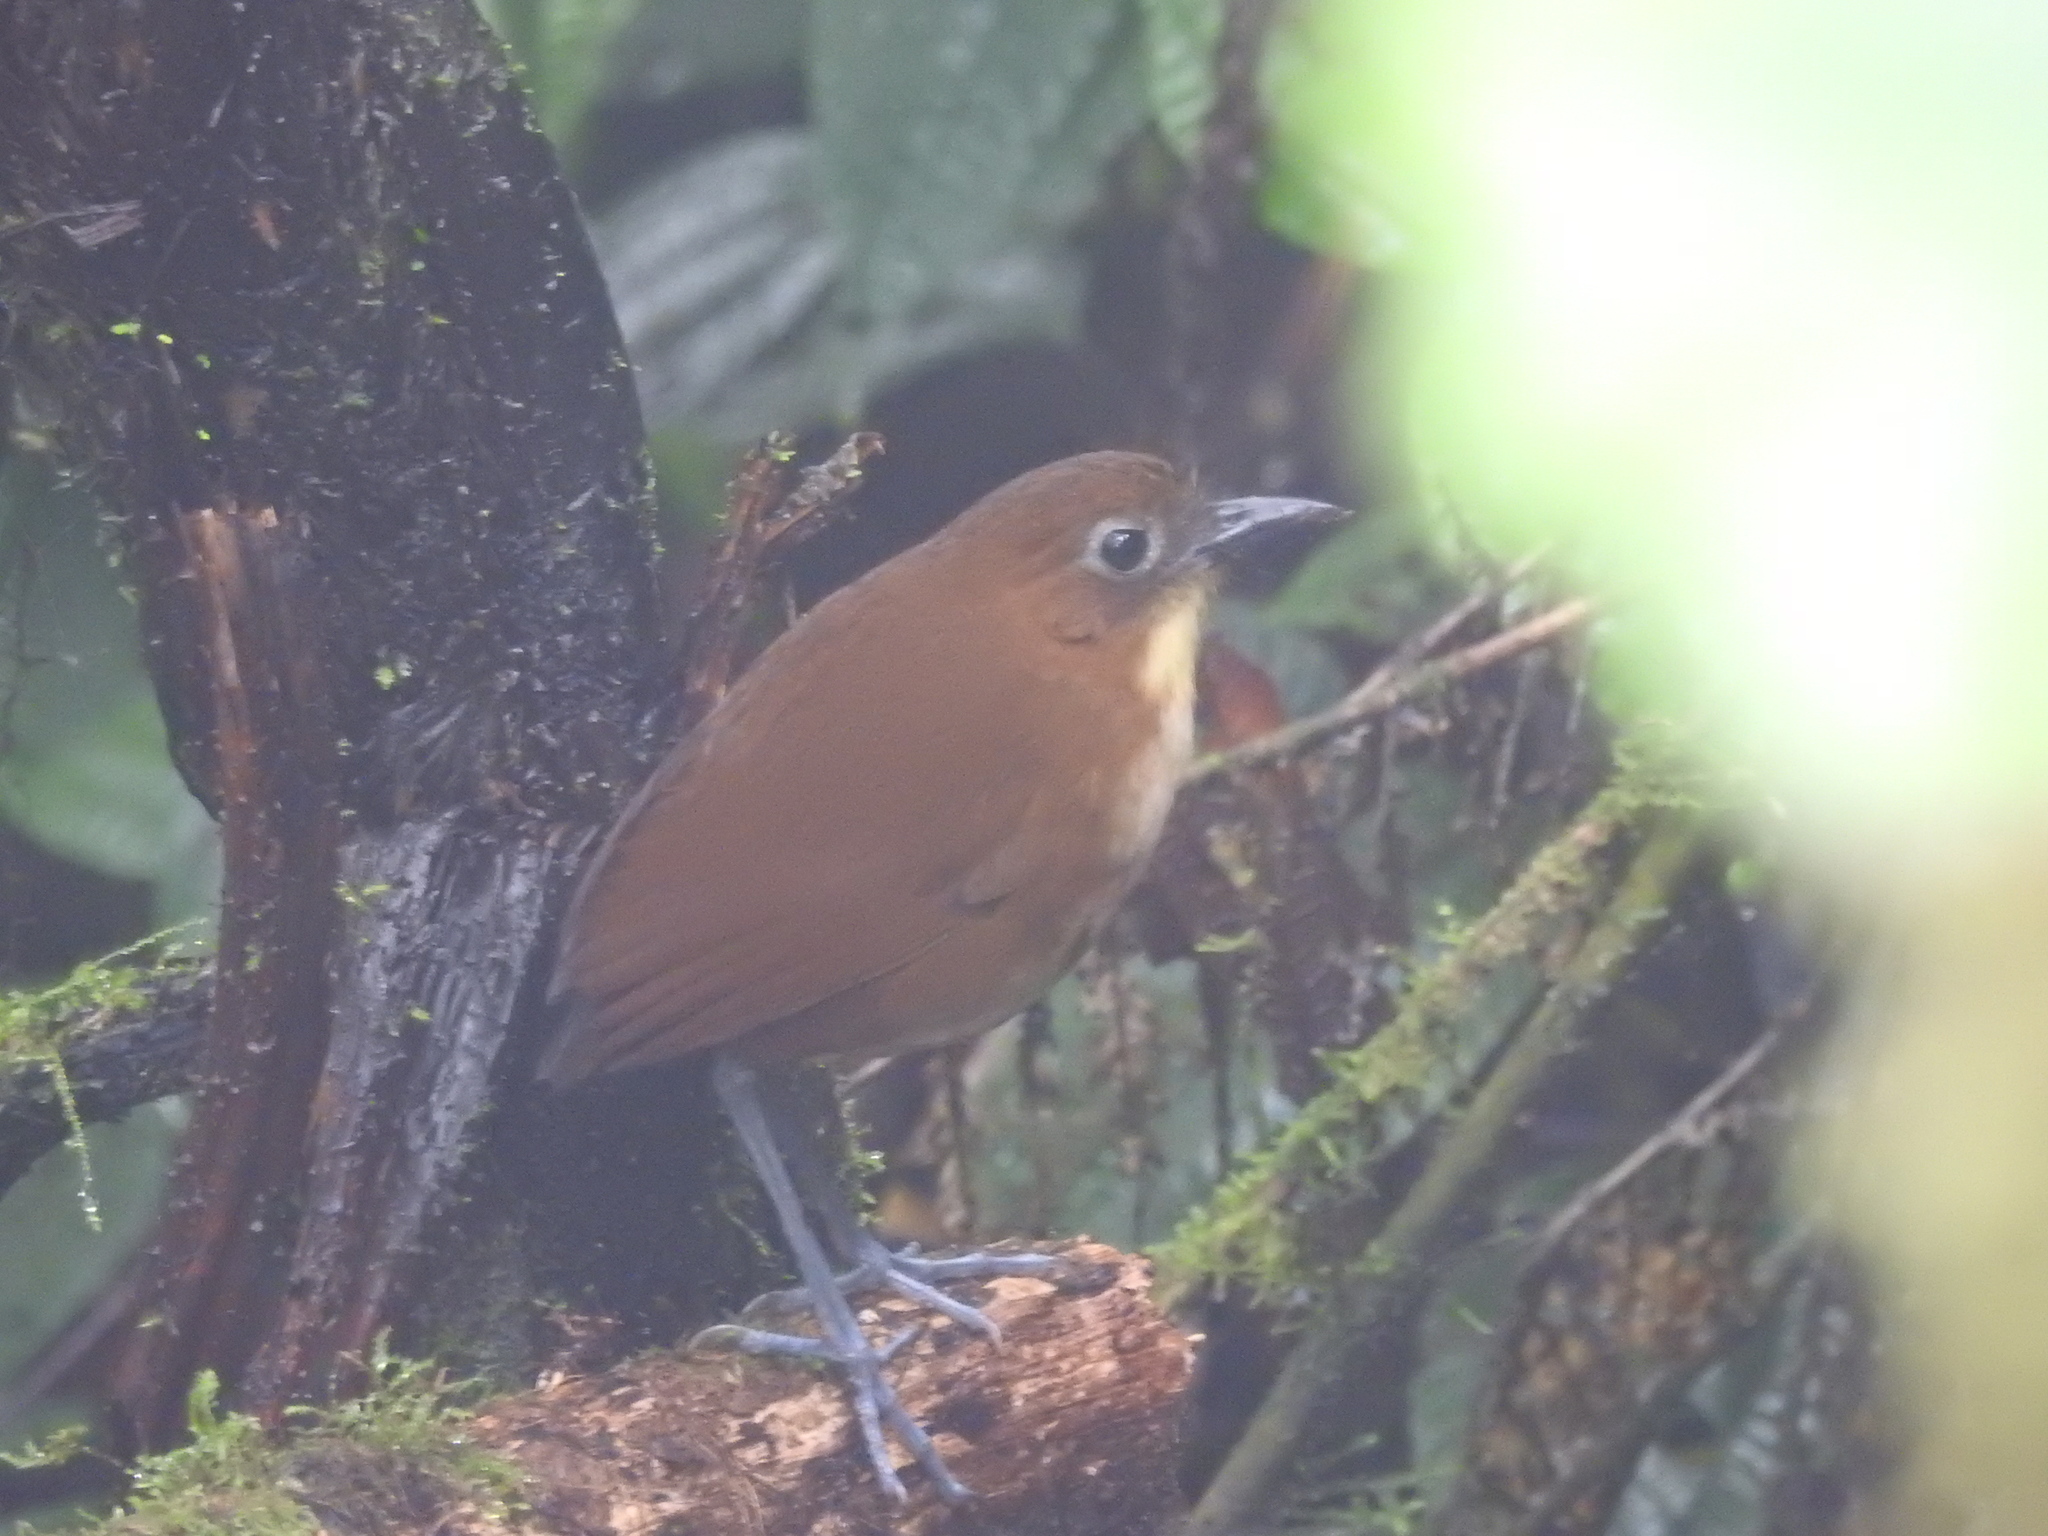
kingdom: Animalia
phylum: Chordata
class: Aves
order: Passeriformes
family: Grallariidae
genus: Grallaria
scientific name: Grallaria flavotincta
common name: Yellow-breasted antpitta
